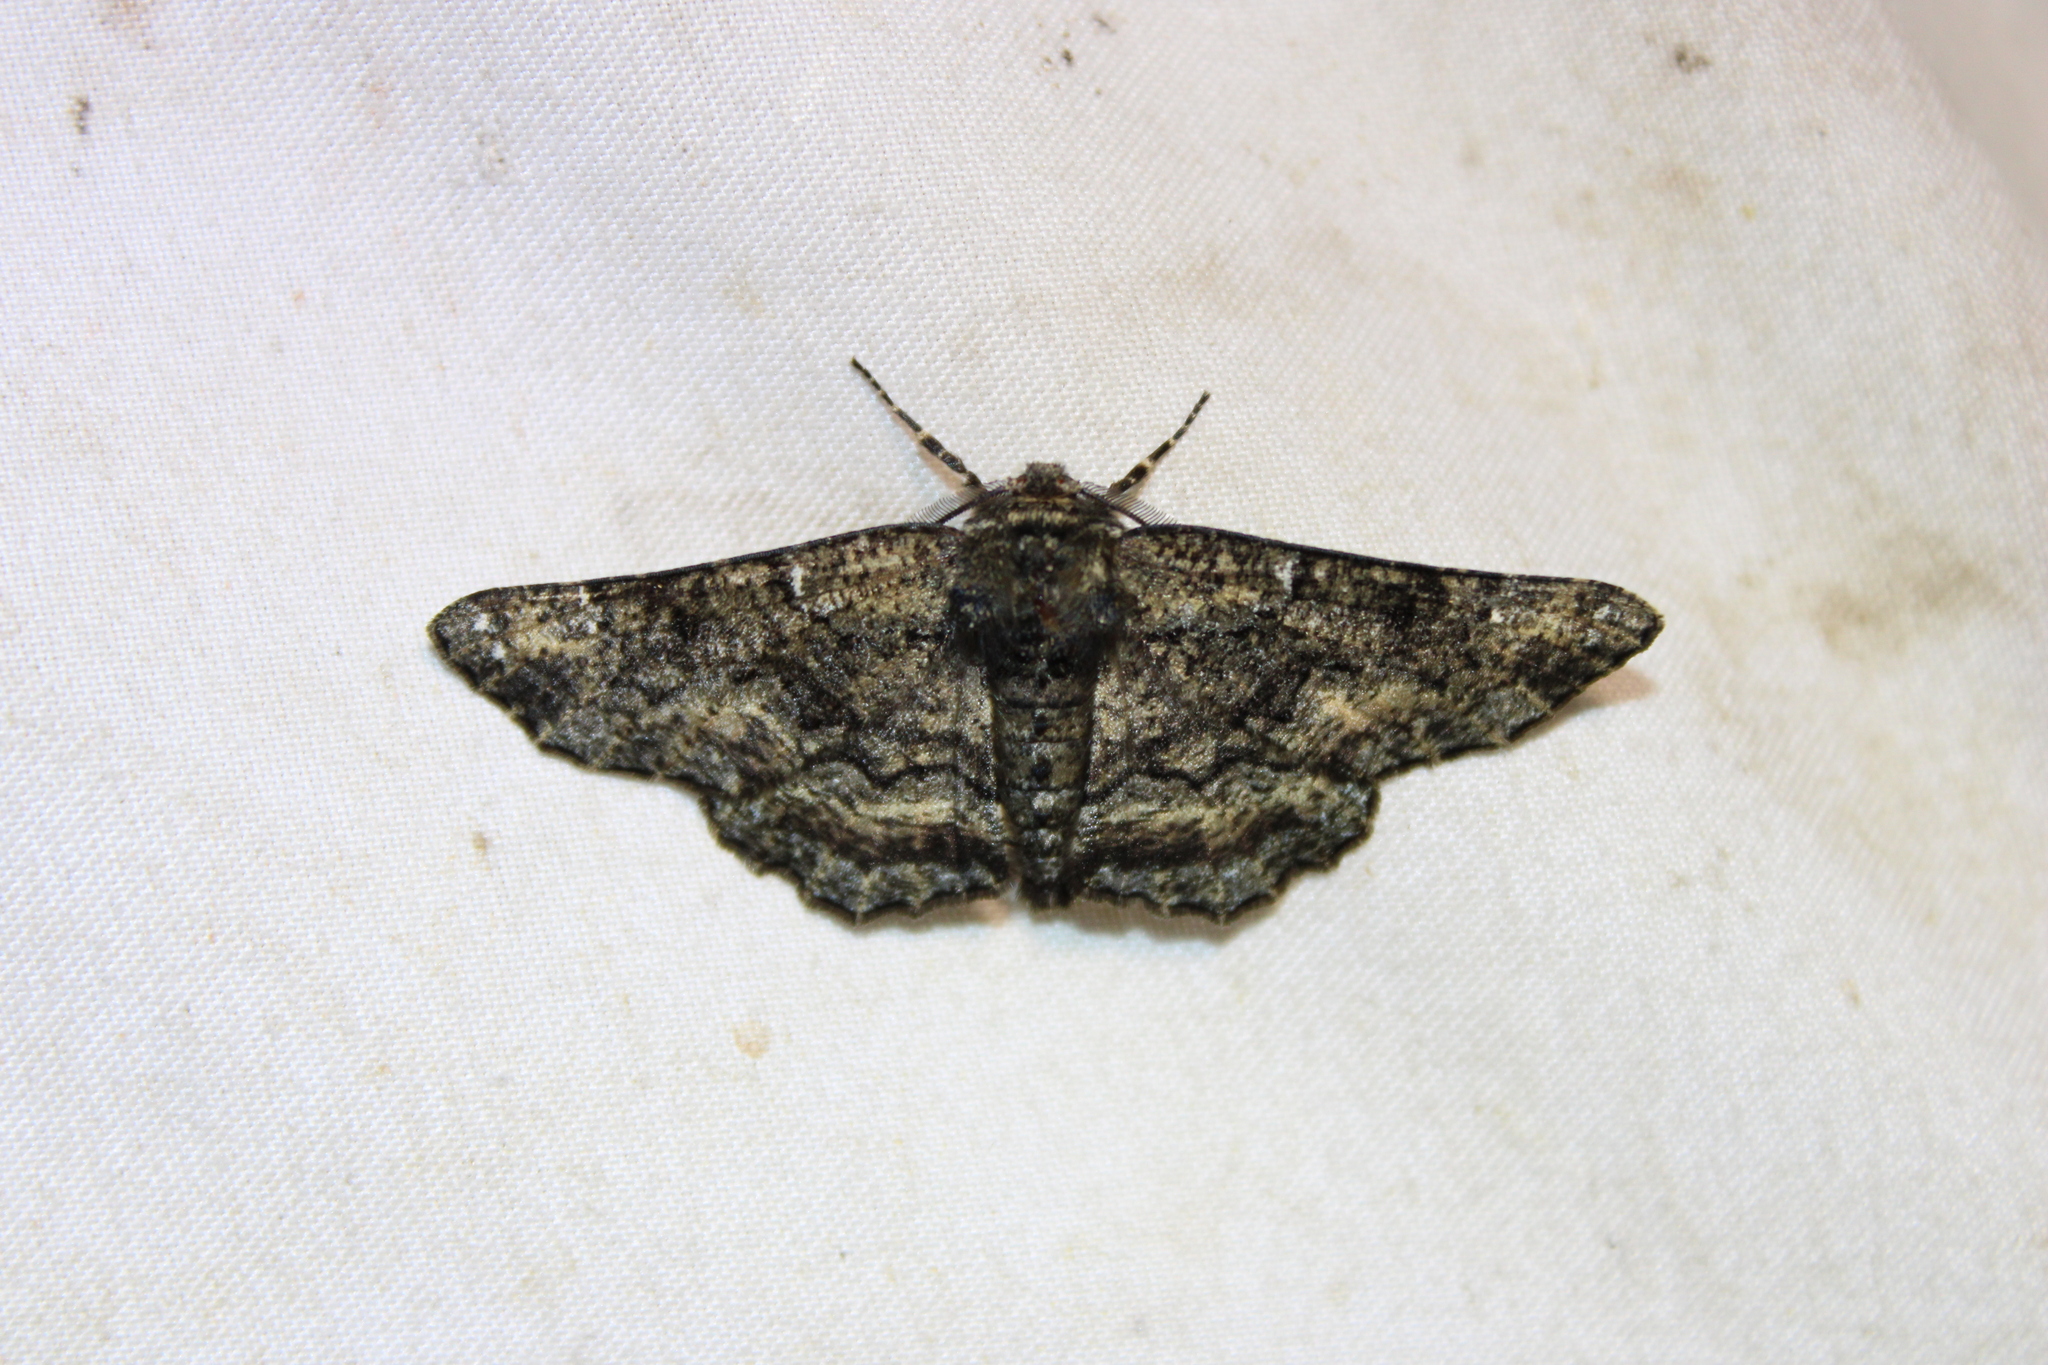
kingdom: Animalia
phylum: Arthropoda
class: Insecta
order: Lepidoptera
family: Geometridae
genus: Phaeoura
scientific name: Phaeoura quernaria
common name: Oak beauty
